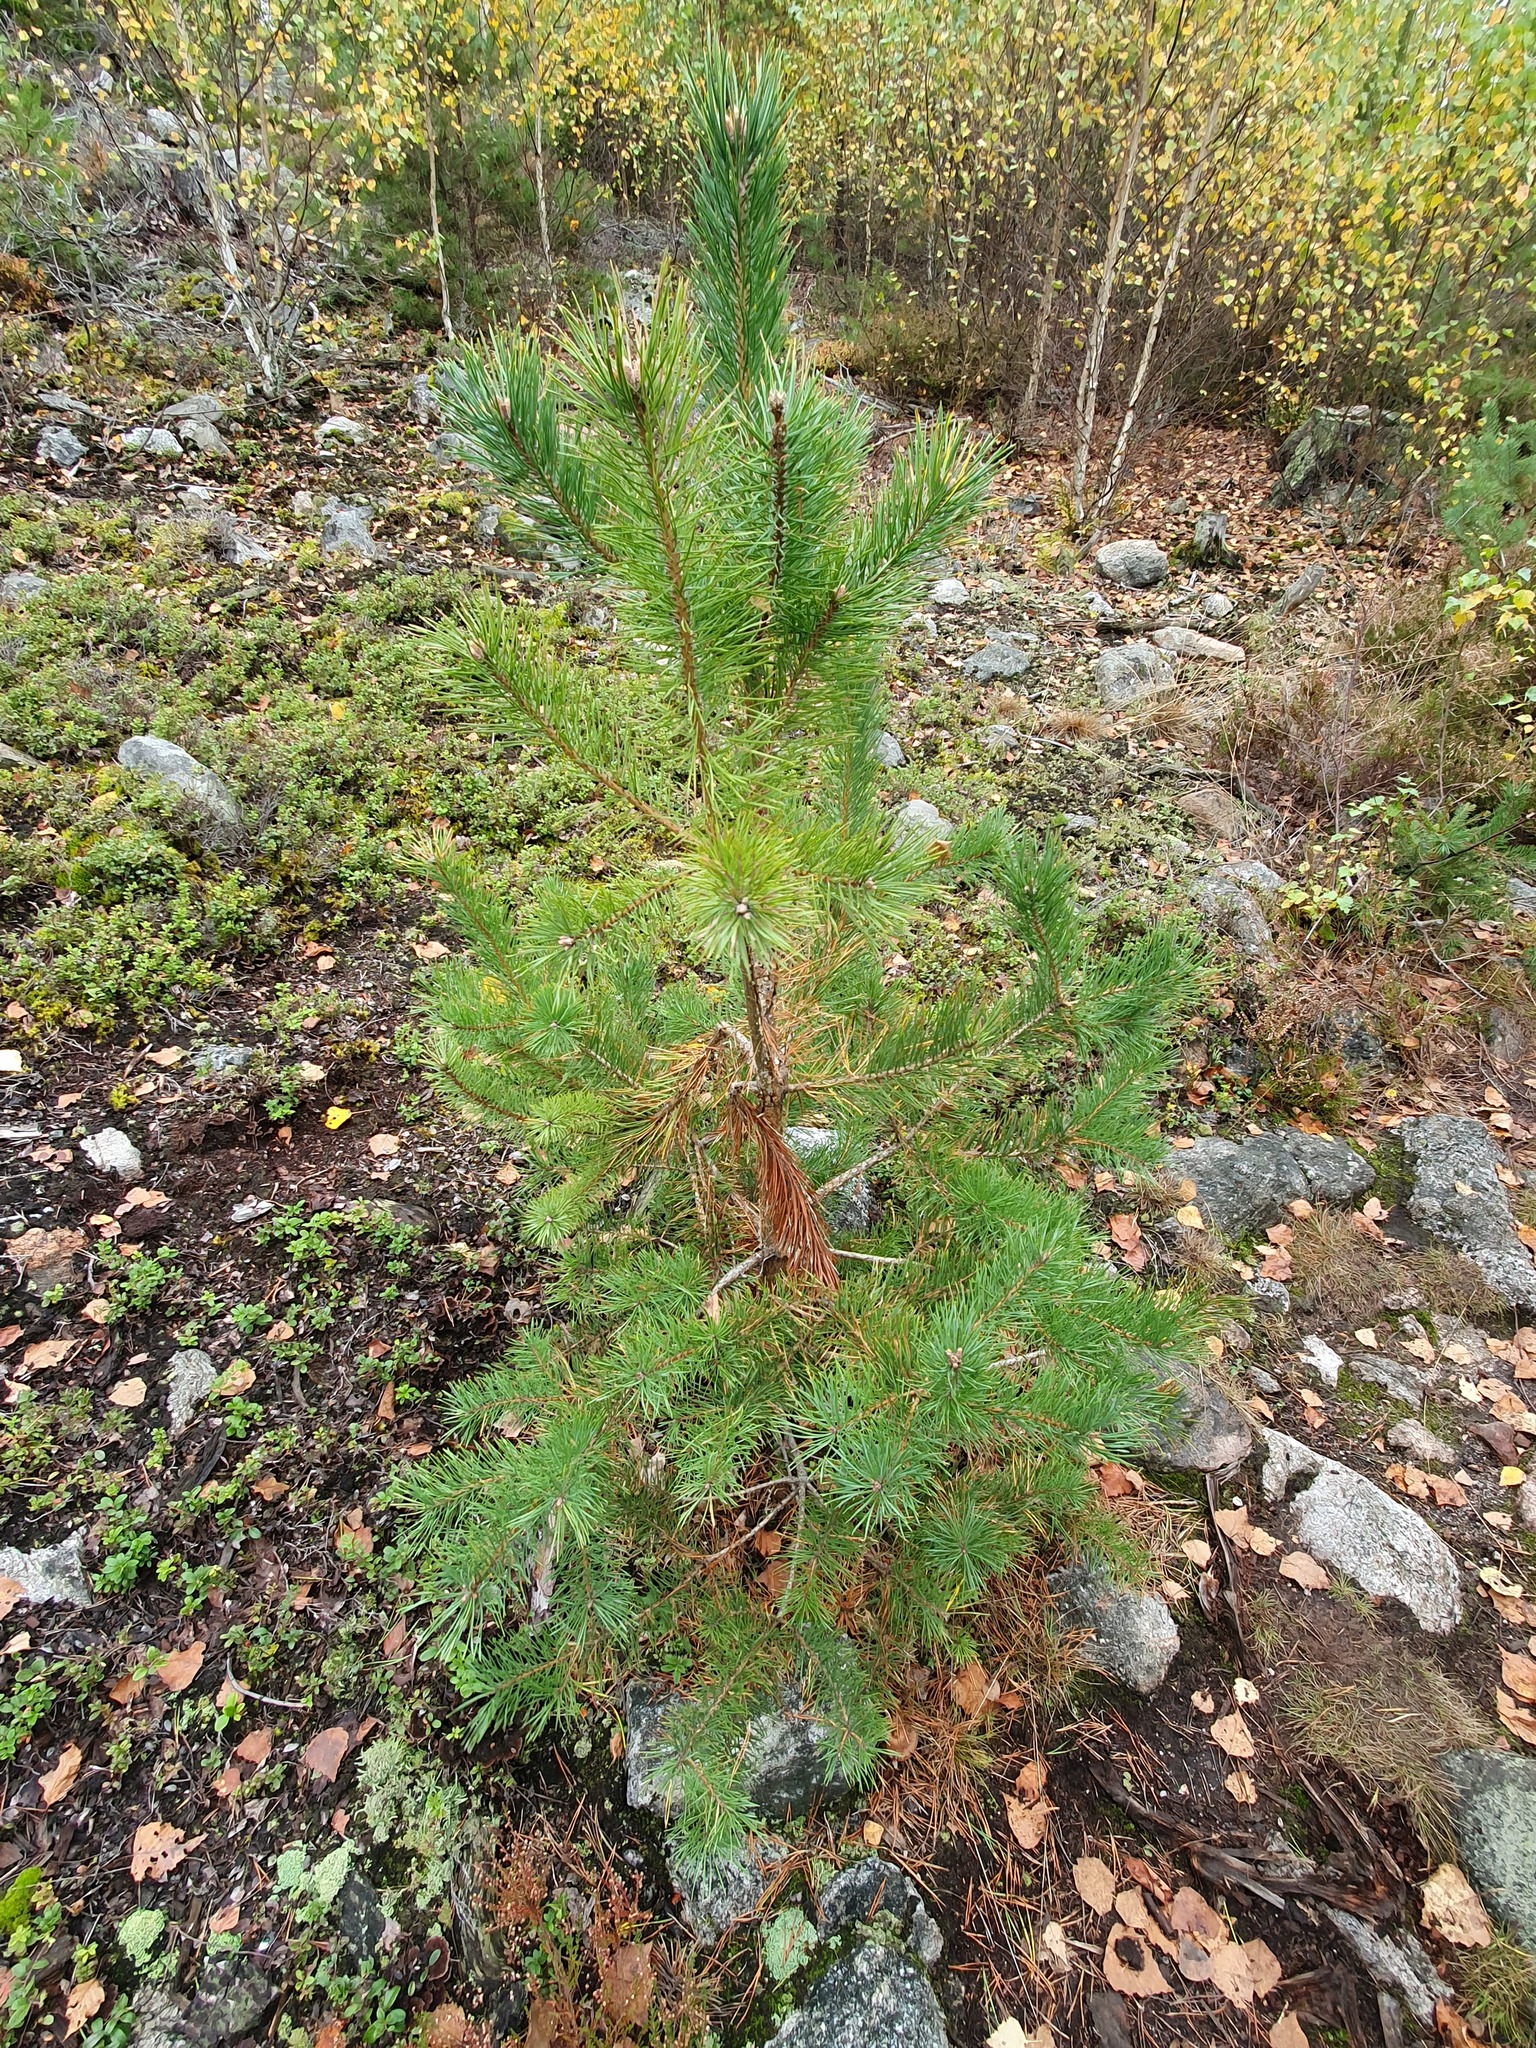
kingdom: Plantae
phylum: Tracheophyta
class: Pinopsida
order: Pinales
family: Pinaceae
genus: Pinus
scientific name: Pinus sylvestris
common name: Scots pine
